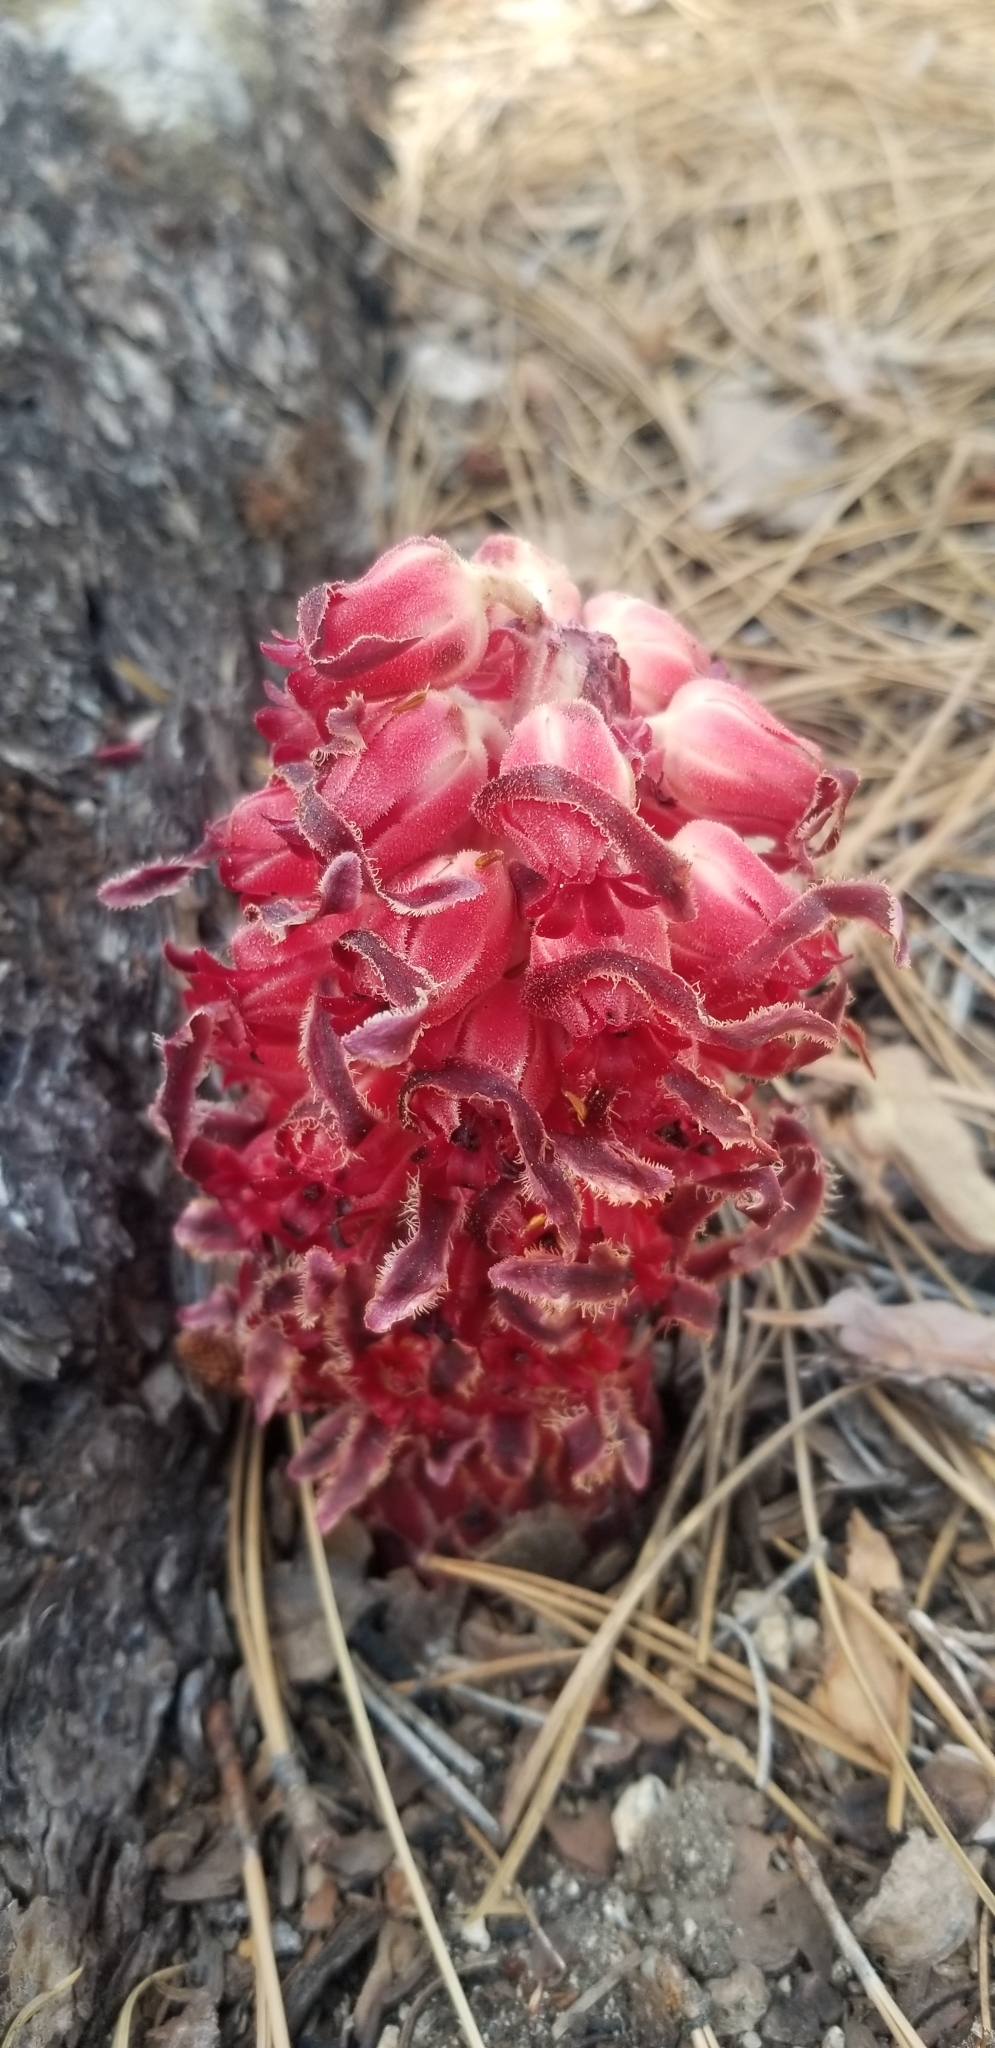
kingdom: Plantae
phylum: Tracheophyta
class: Magnoliopsida
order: Ericales
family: Ericaceae
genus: Sarcodes
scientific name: Sarcodes sanguinea
